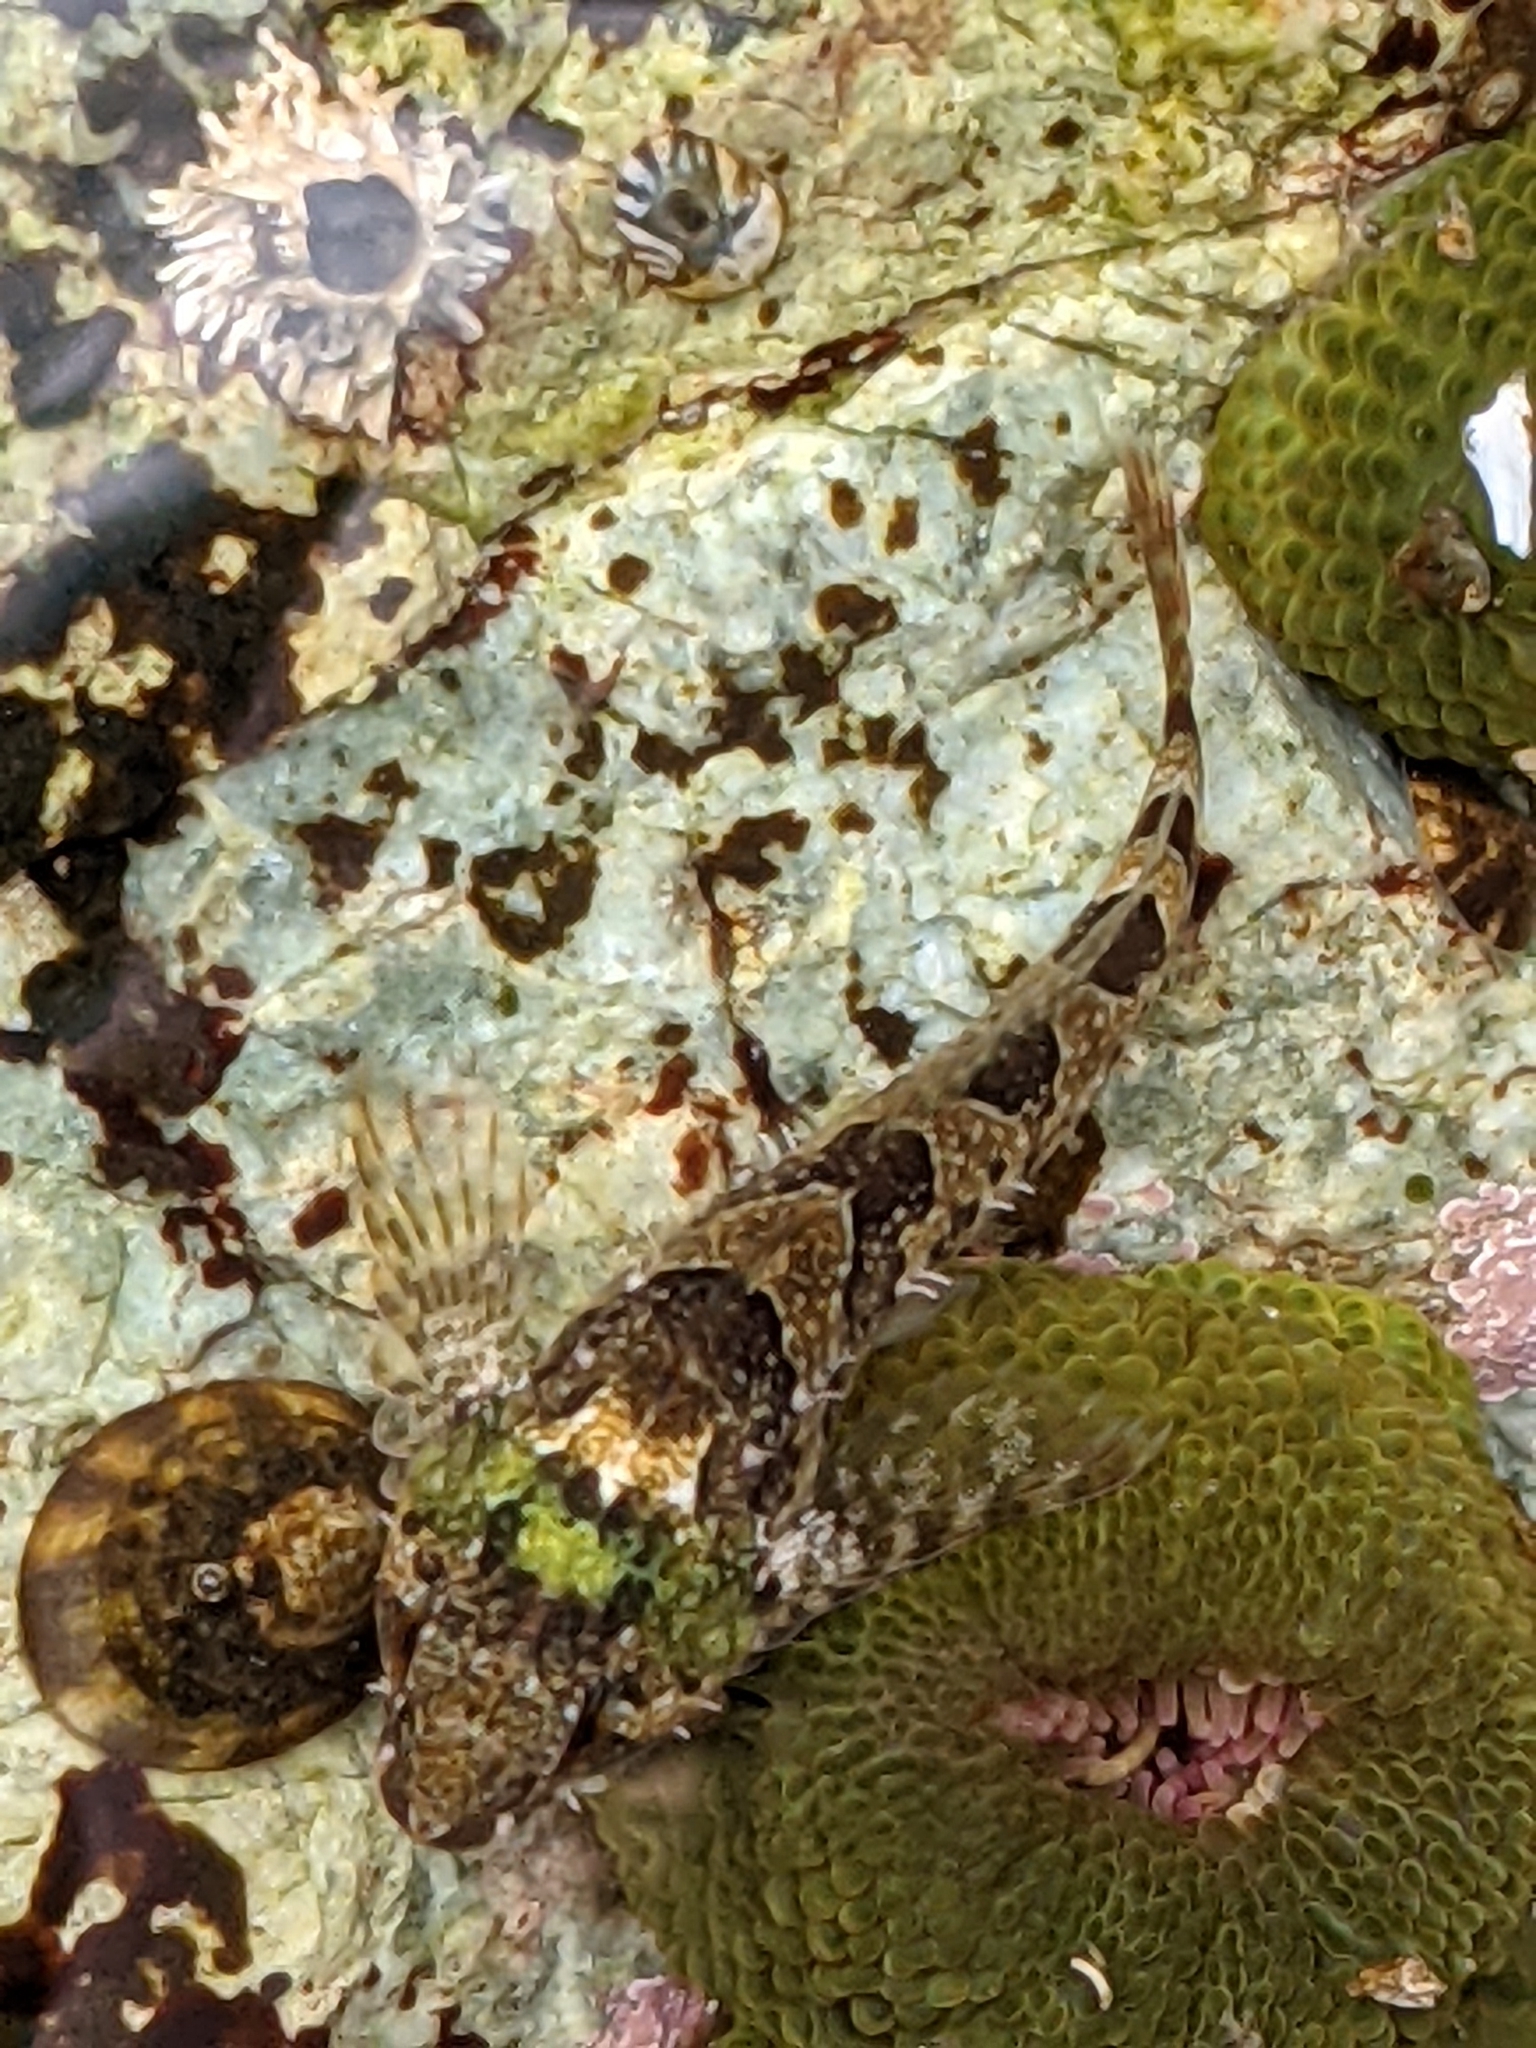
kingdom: Animalia
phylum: Chordata
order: Scorpaeniformes
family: Cottidae
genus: Oligocottus
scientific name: Oligocottus maculosus
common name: Tidepool sculpin
